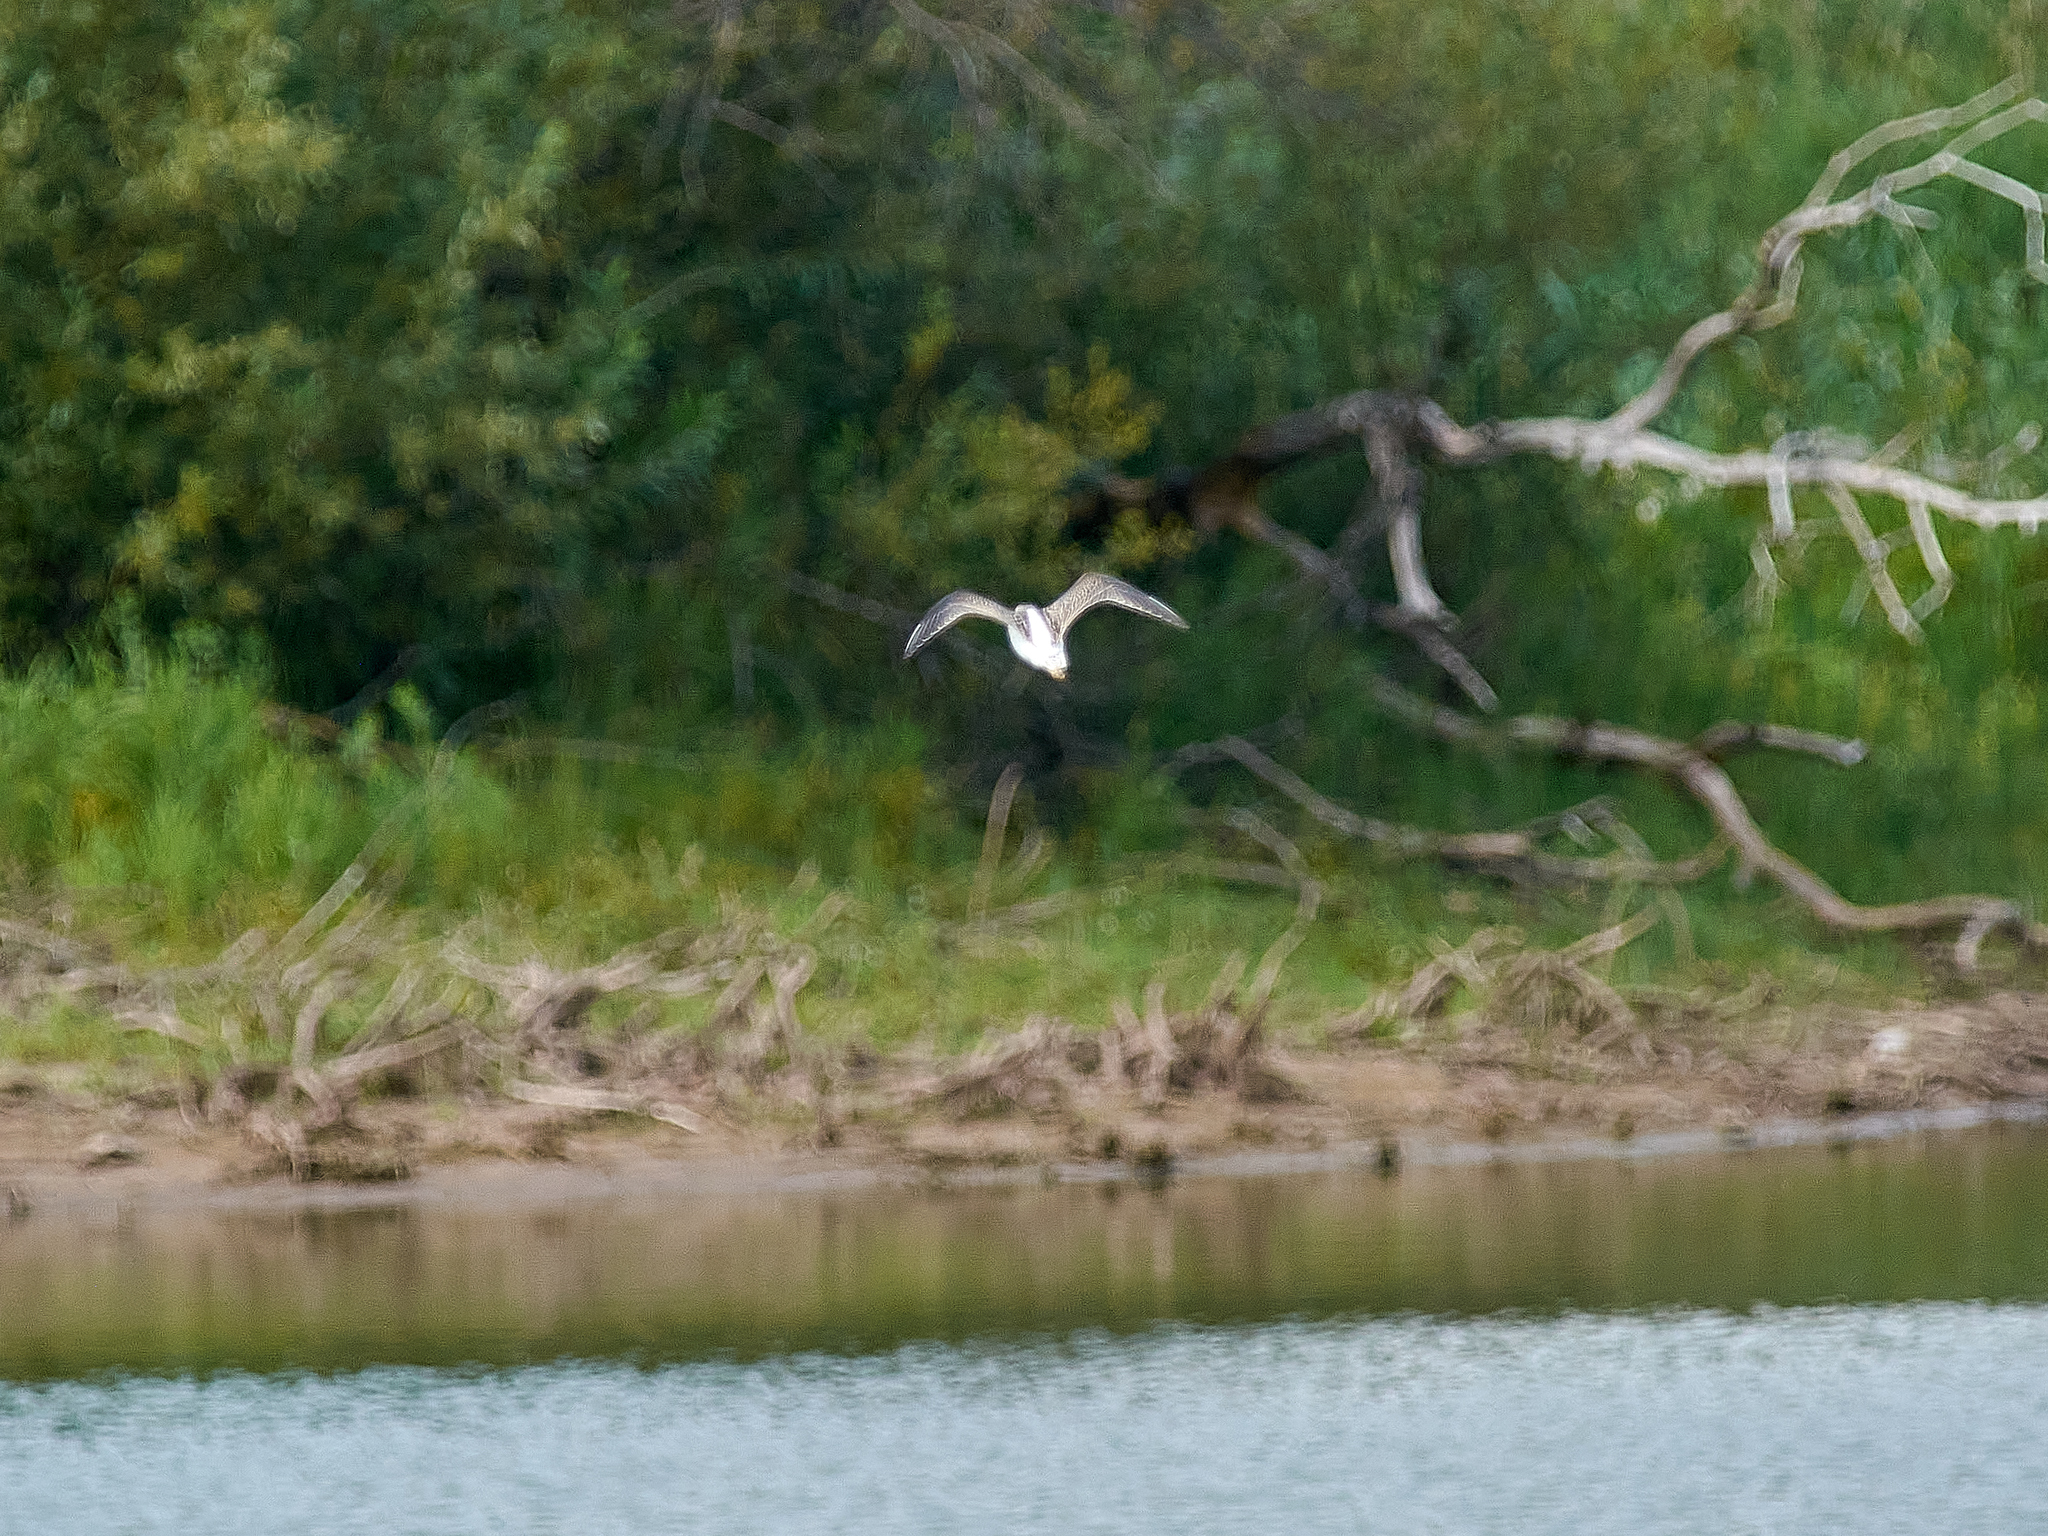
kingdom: Animalia
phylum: Chordata
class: Aves
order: Charadriiformes
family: Scolopacidae
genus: Tringa
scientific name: Tringa nebularia
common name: Common greenshank
